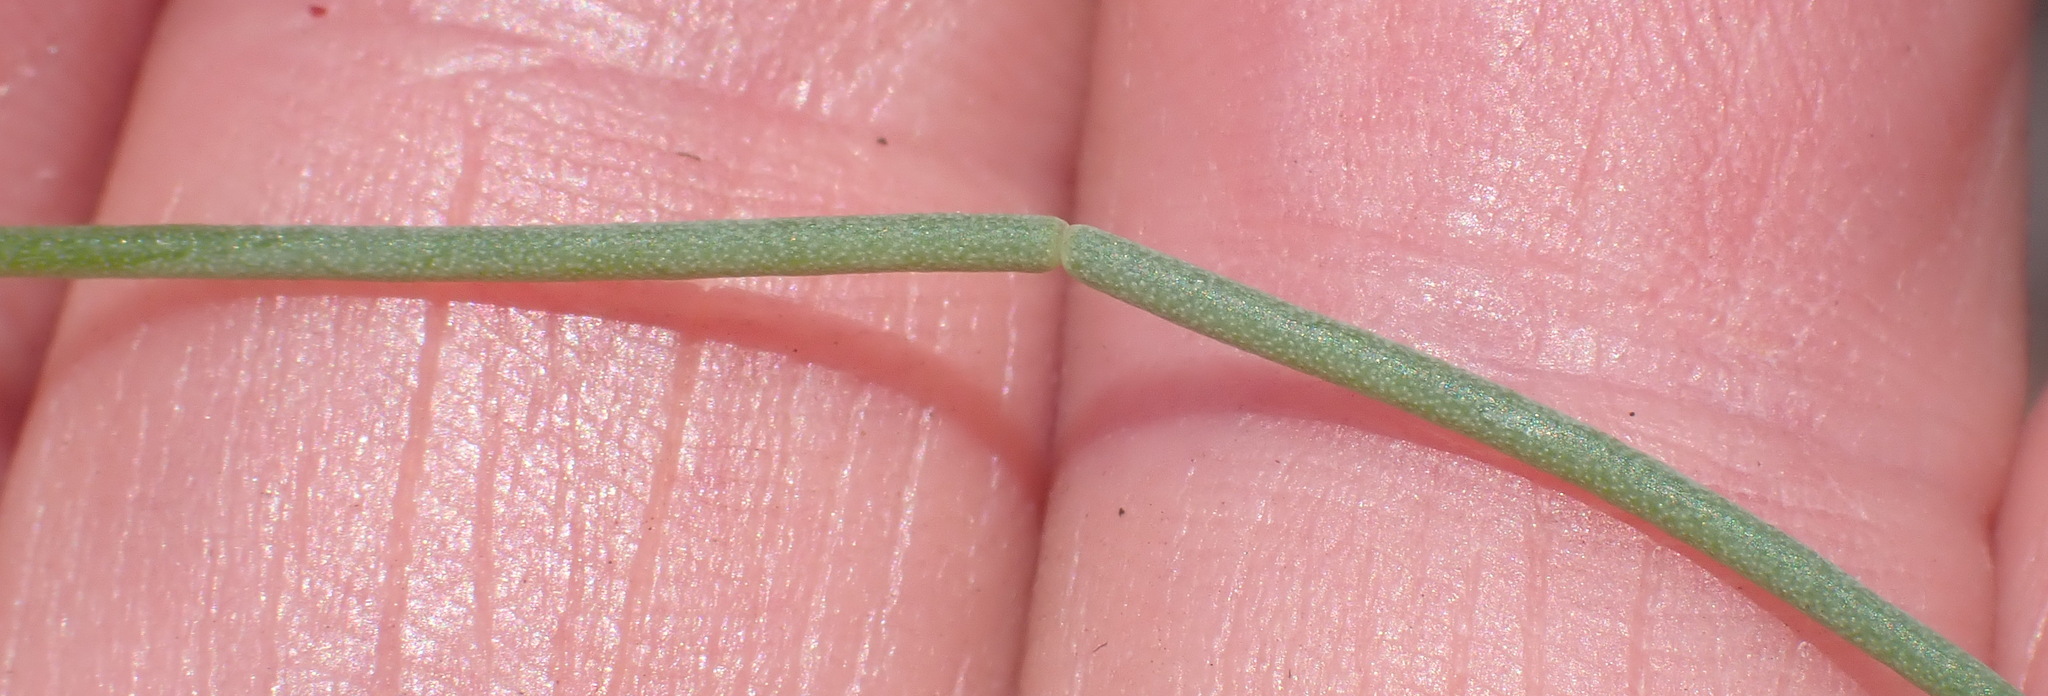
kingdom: Plantae
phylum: Tracheophyta
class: Magnoliopsida
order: Fabales
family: Fabaceae
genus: Lebeckia
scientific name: Lebeckia gracilis
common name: Slender ganna
